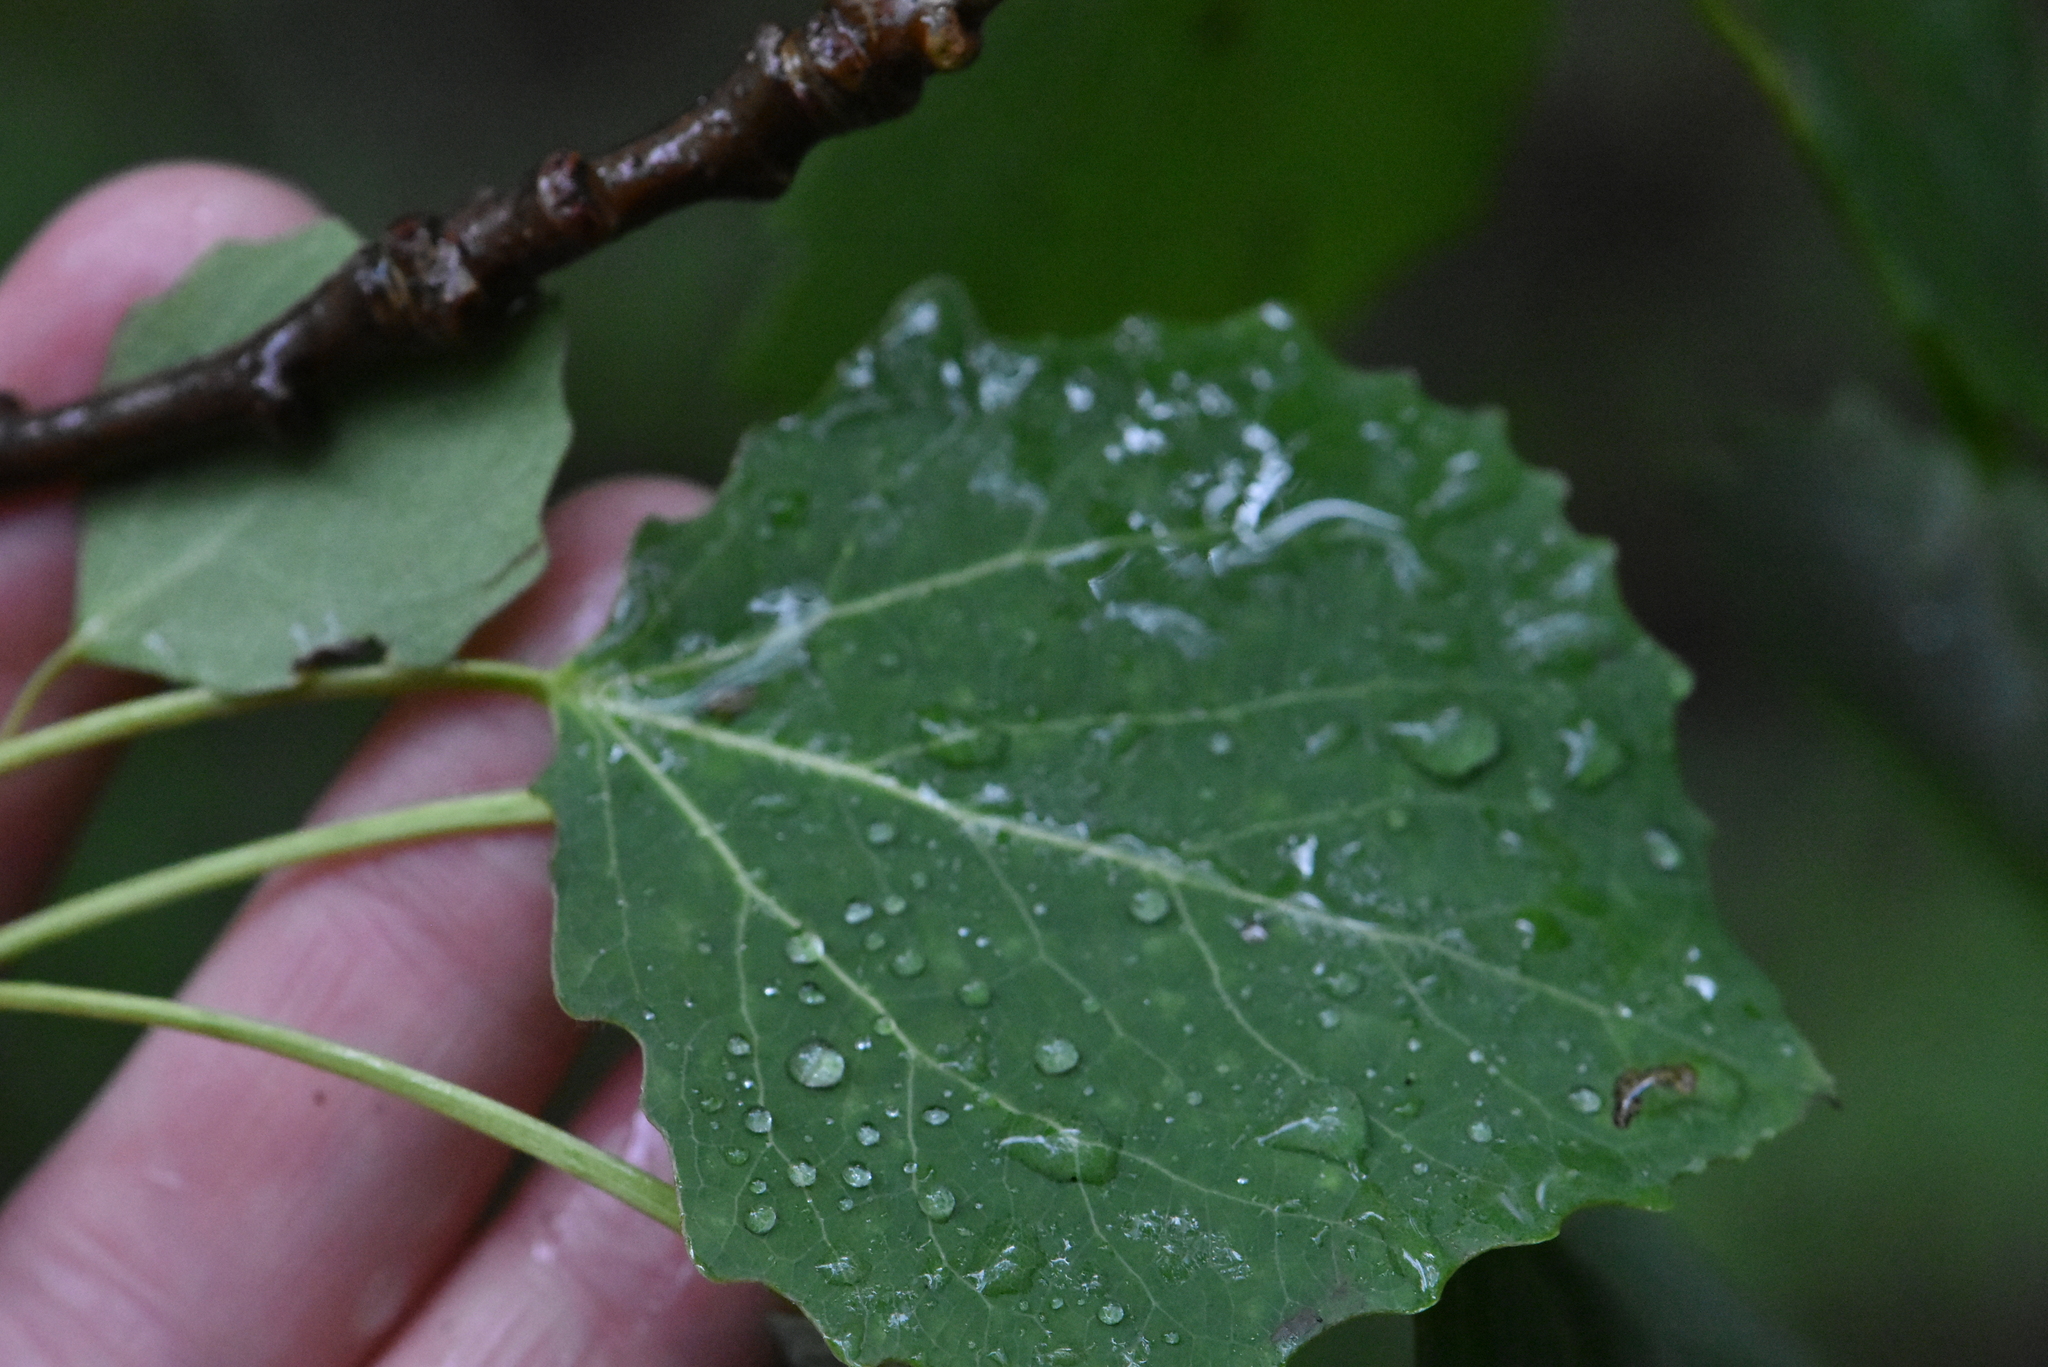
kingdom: Plantae
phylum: Tracheophyta
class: Magnoliopsida
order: Malpighiales
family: Salicaceae
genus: Populus
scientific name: Populus tremula
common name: European aspen
